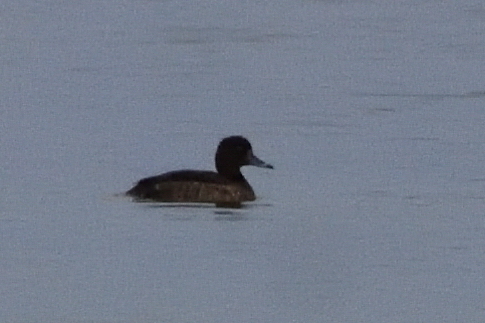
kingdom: Animalia
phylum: Chordata
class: Aves
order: Anseriformes
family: Anatidae
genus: Aythya
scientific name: Aythya fuligula
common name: Tufted duck
